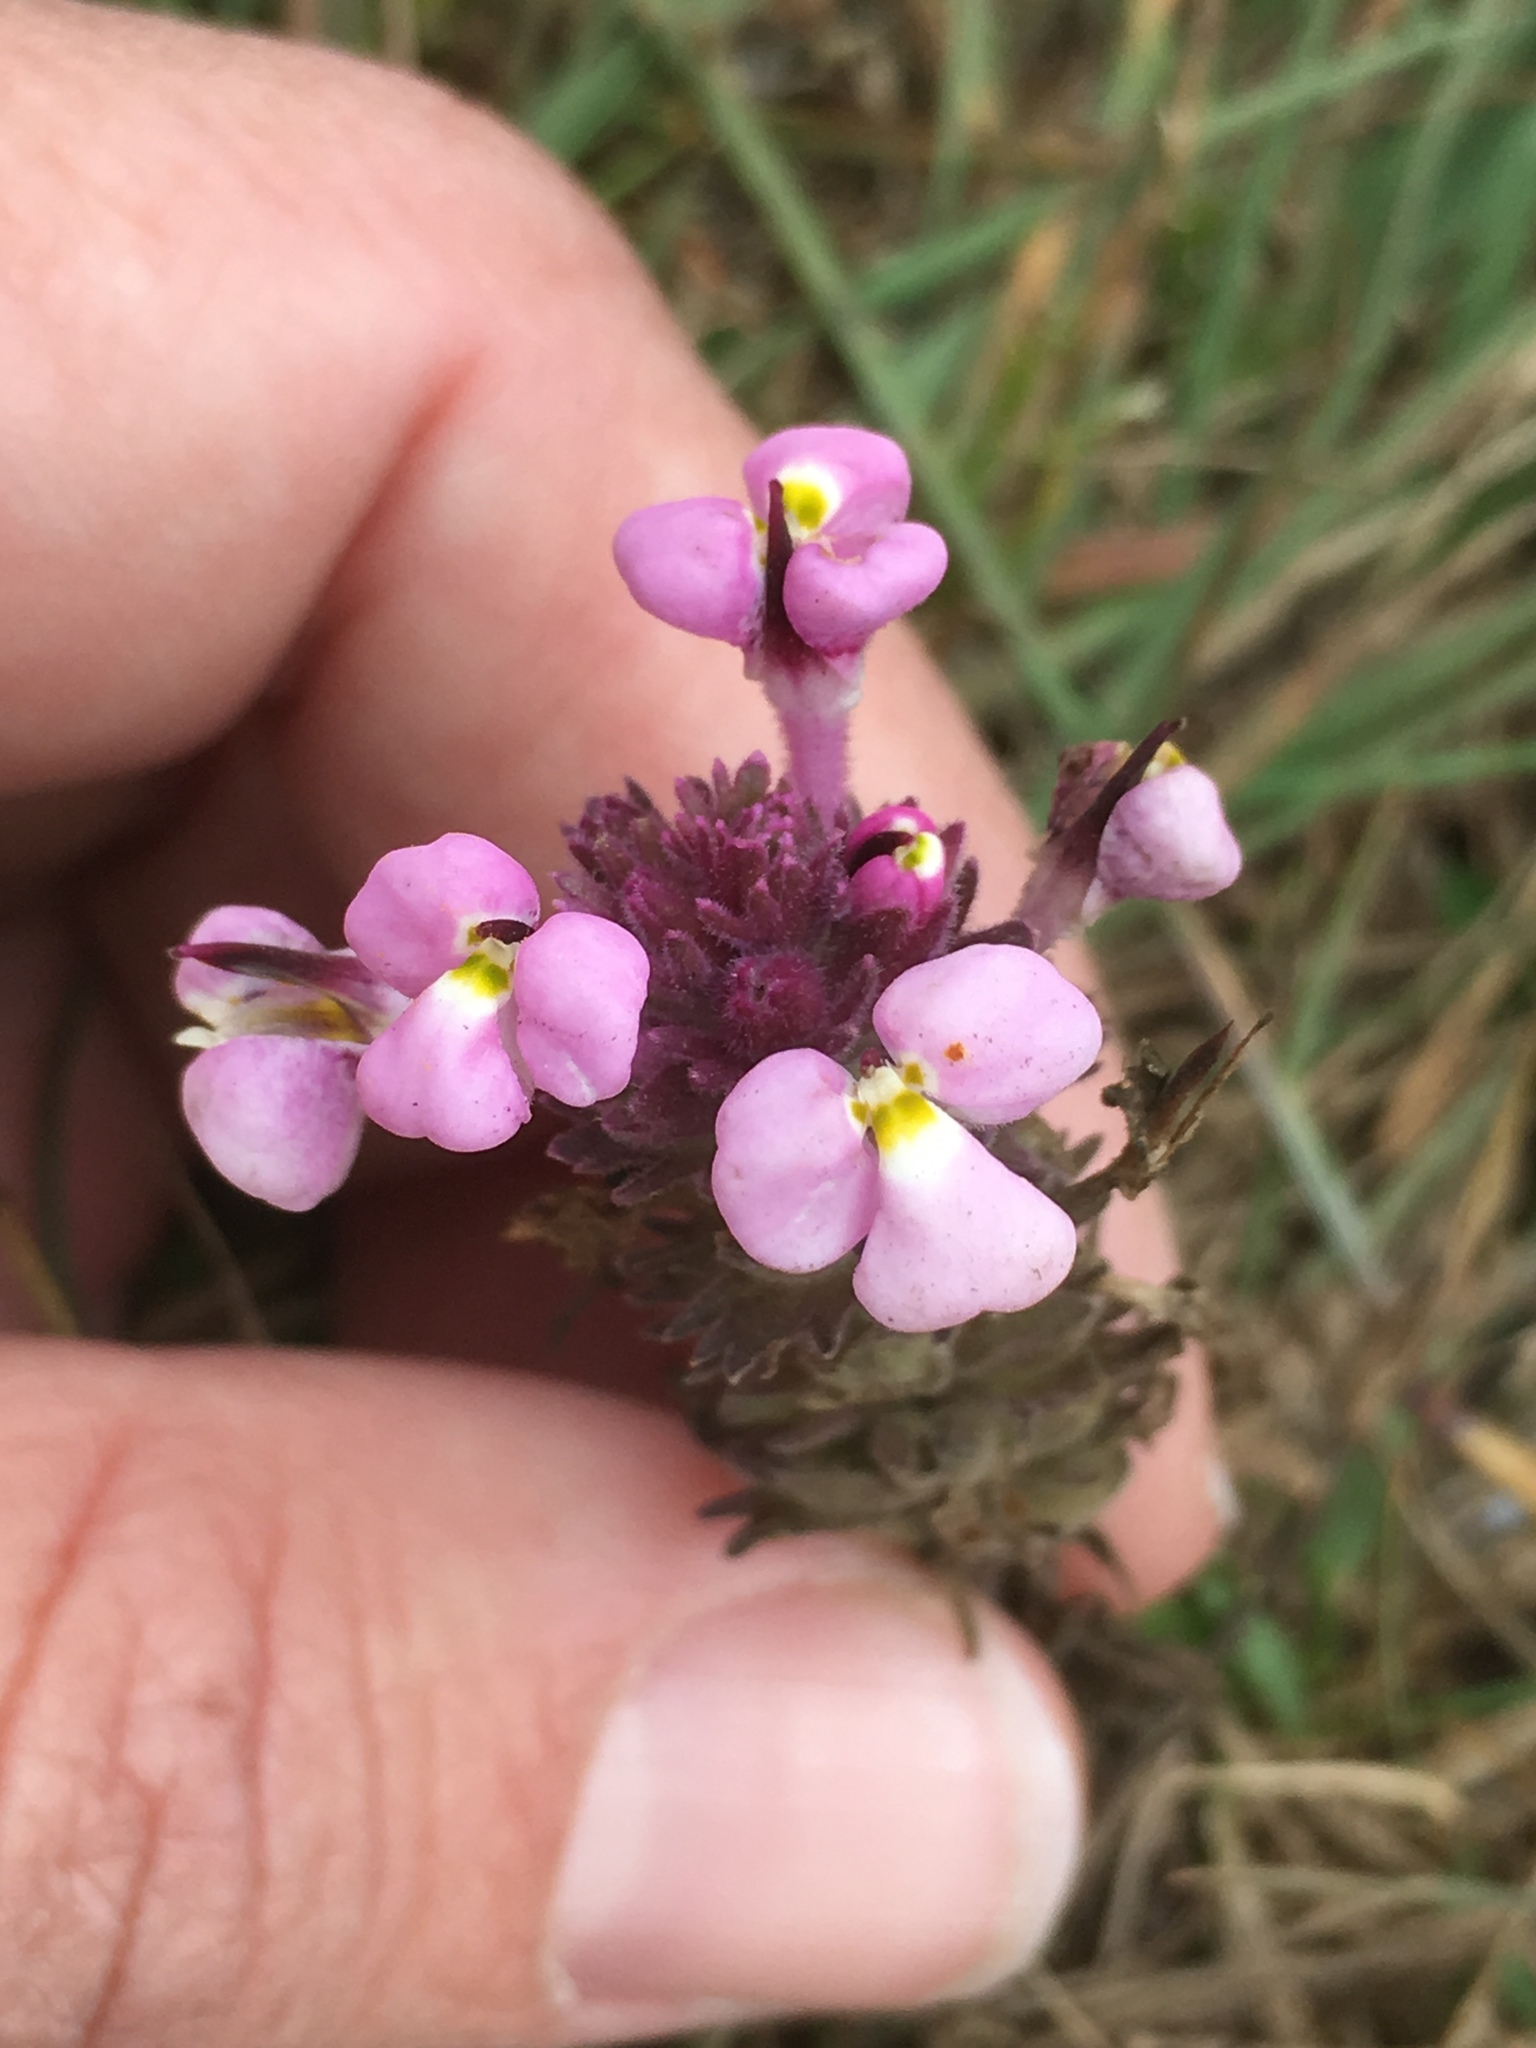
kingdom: Plantae
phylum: Tracheophyta
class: Magnoliopsida
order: Lamiales
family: Orobanchaceae
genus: Triphysaria
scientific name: Triphysaria eriantha
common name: Johnny-tuck
